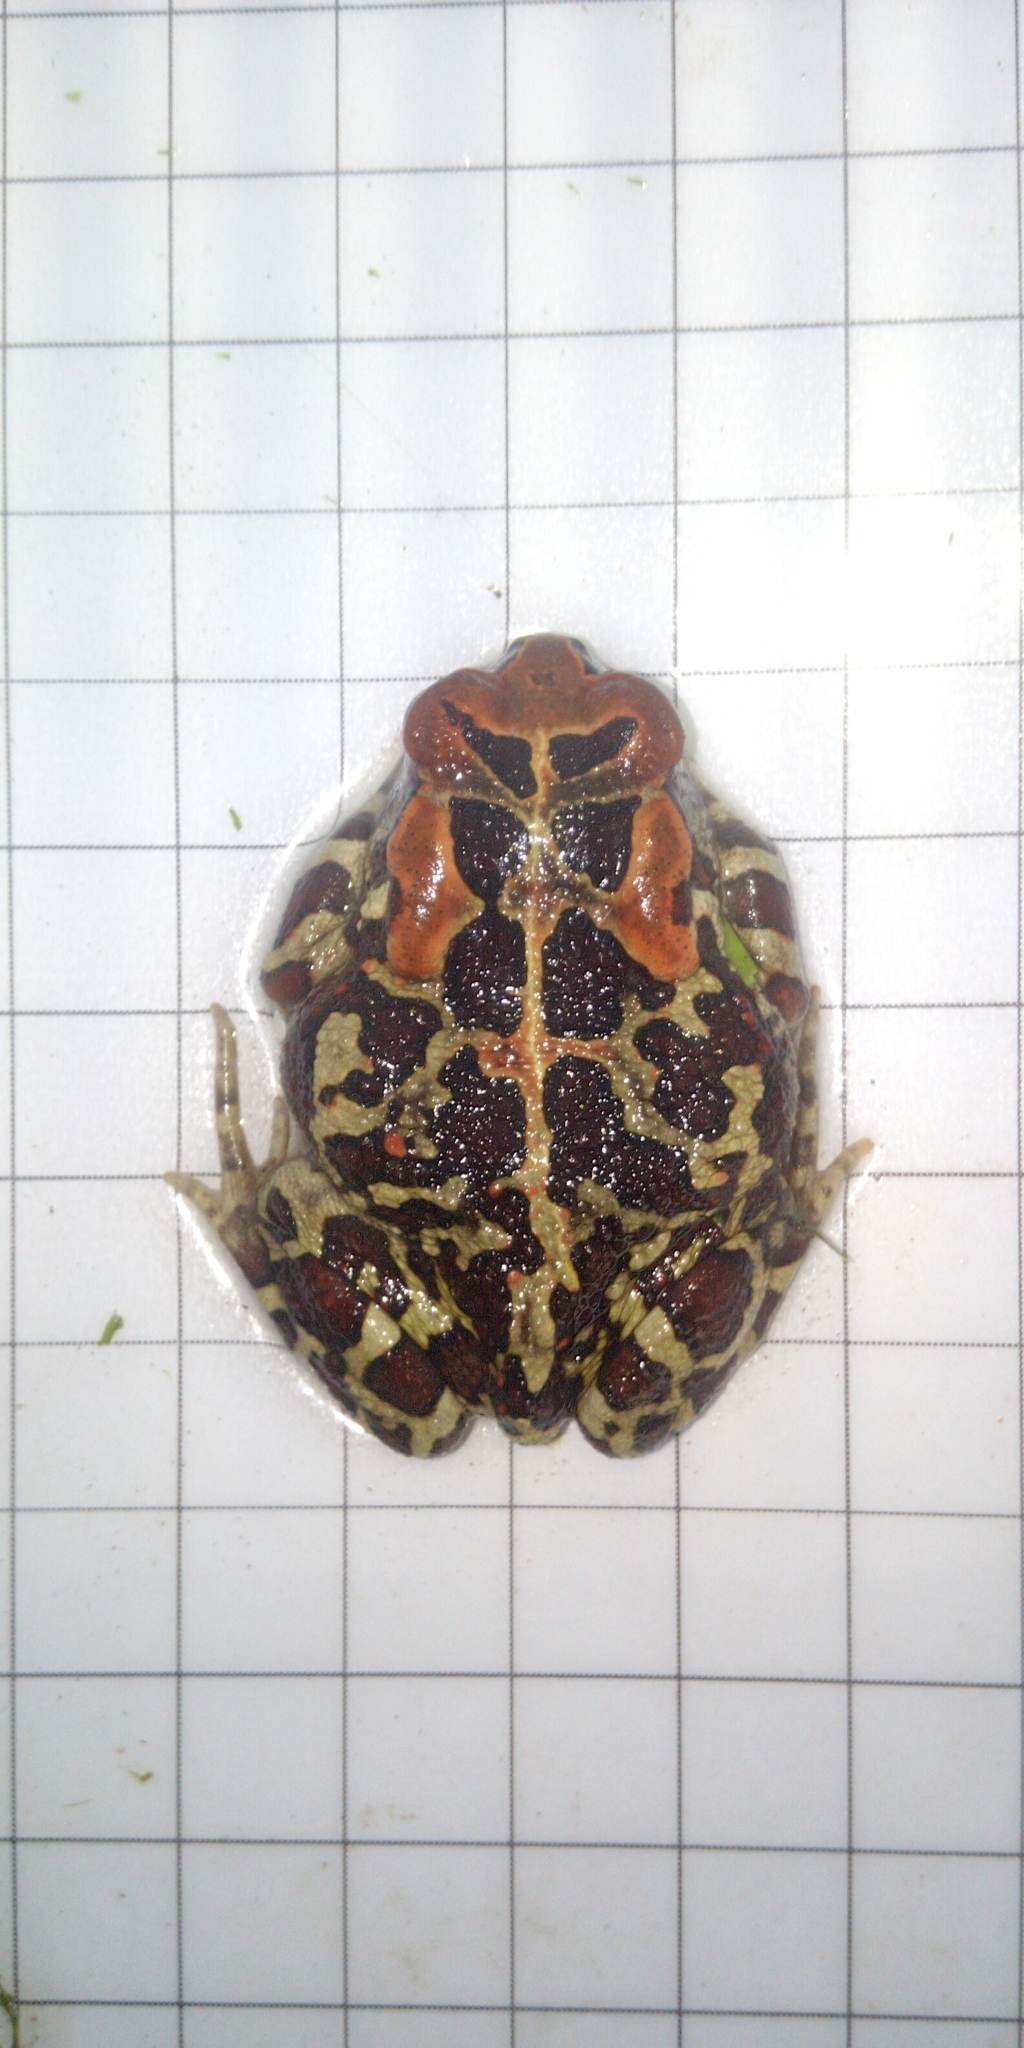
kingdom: Animalia
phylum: Chordata
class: Amphibia
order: Anura
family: Bufonidae
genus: Sclerophrys
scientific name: Sclerophrys pantherina
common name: Panther toad
